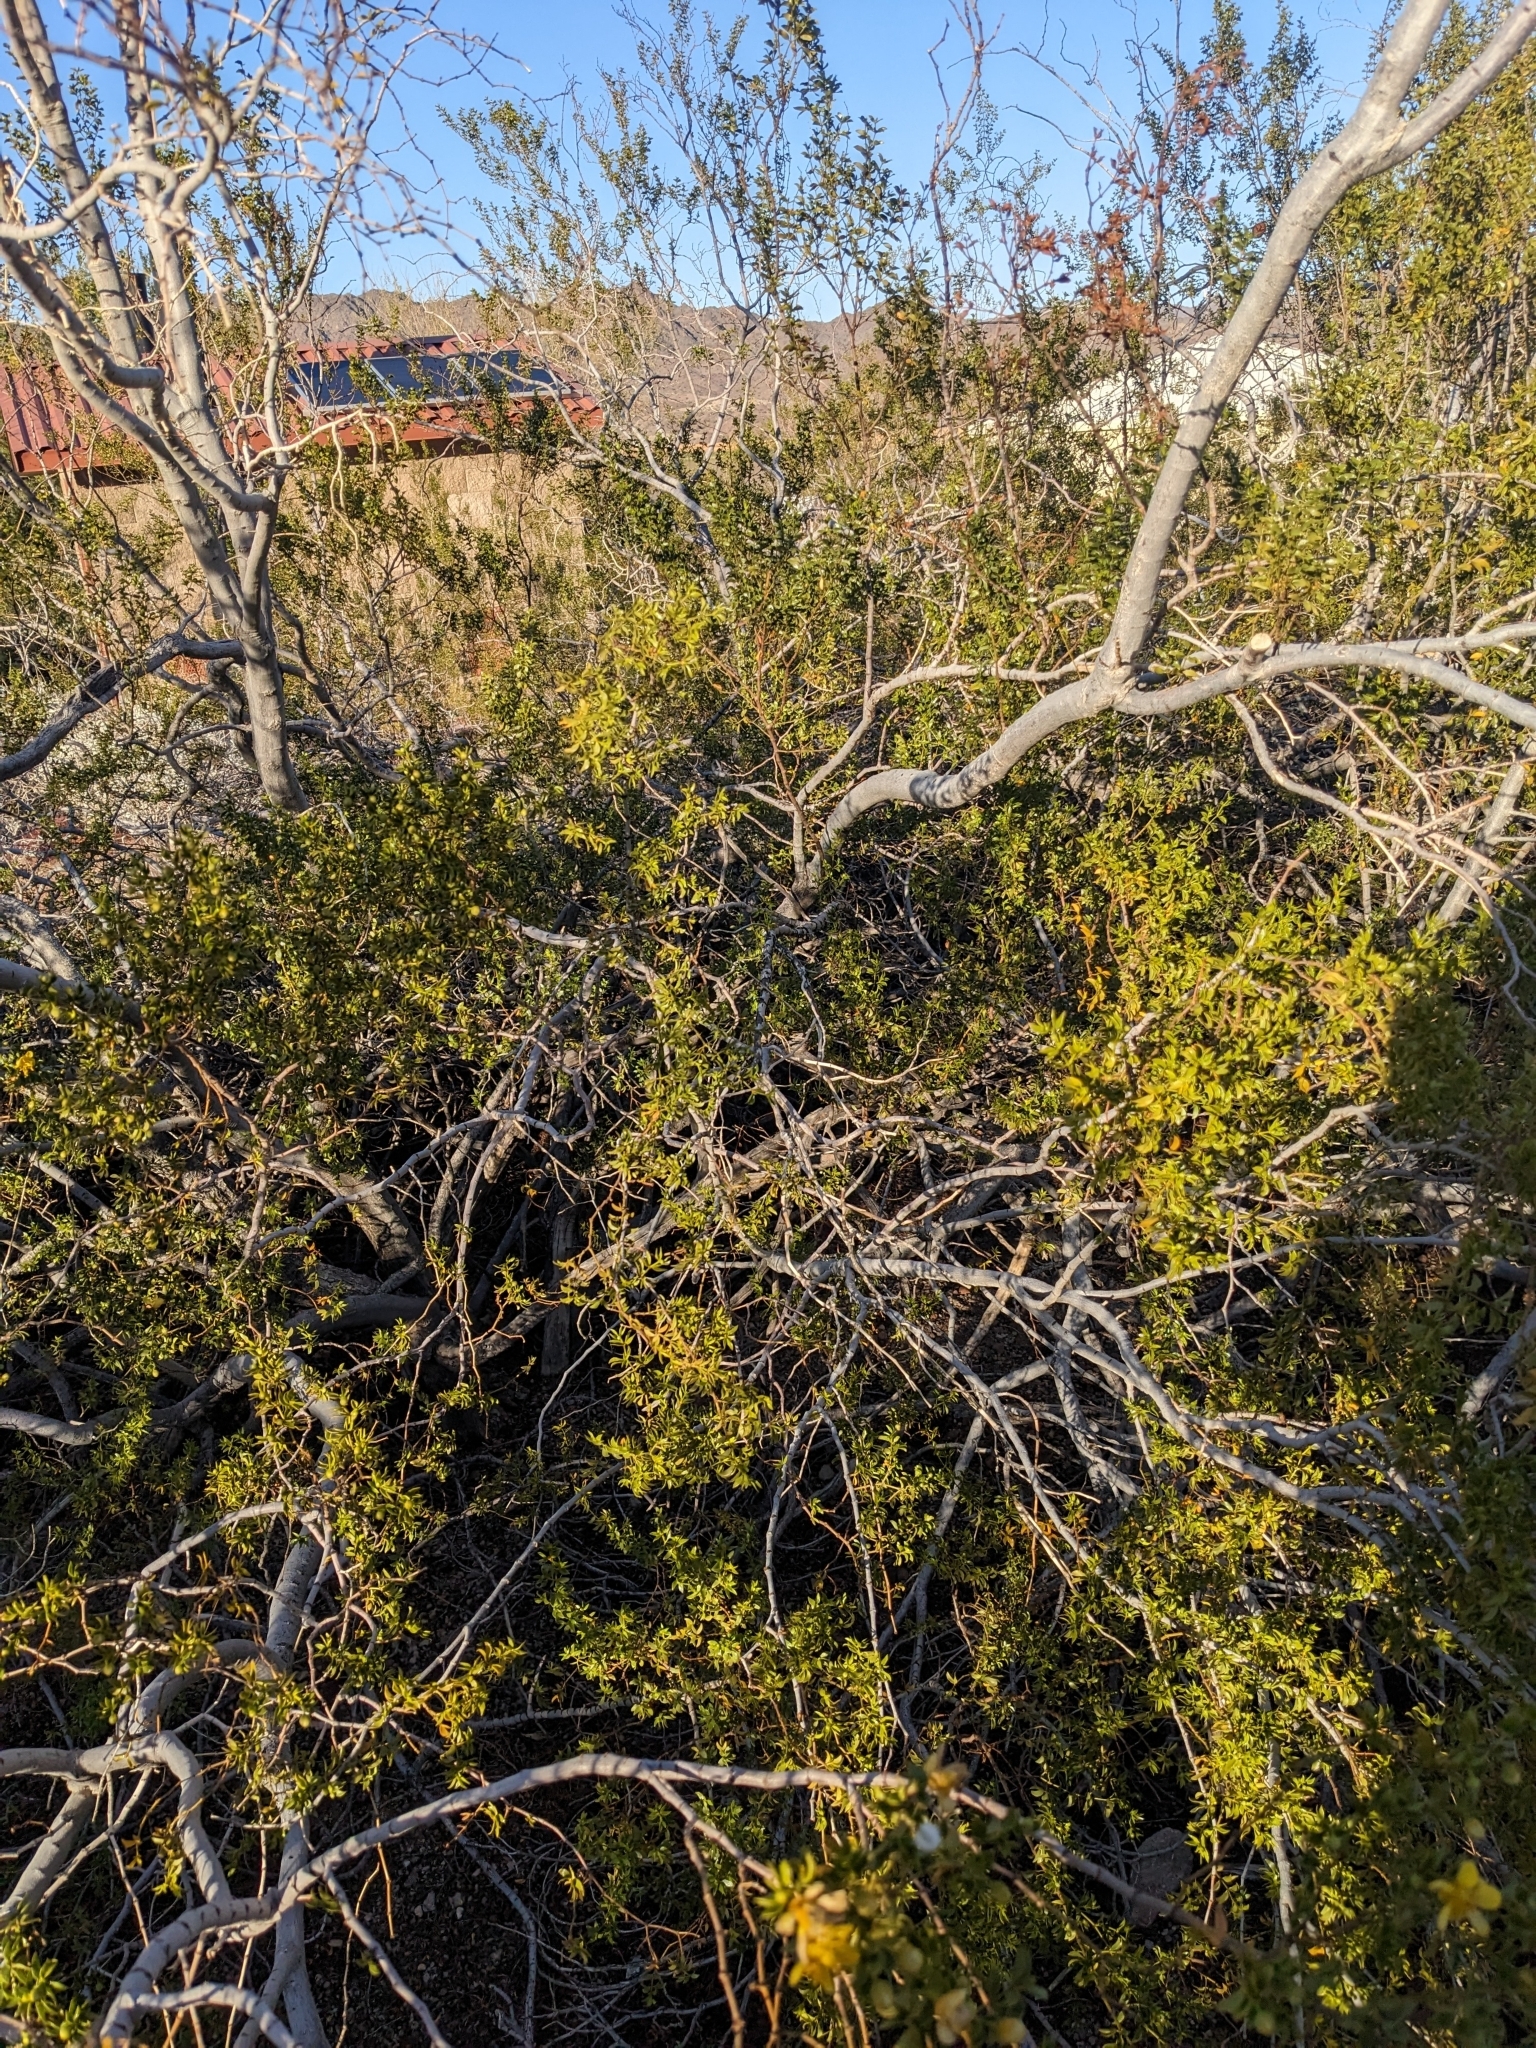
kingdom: Plantae
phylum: Tracheophyta
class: Magnoliopsida
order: Zygophyllales
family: Zygophyllaceae
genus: Larrea
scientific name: Larrea tridentata
